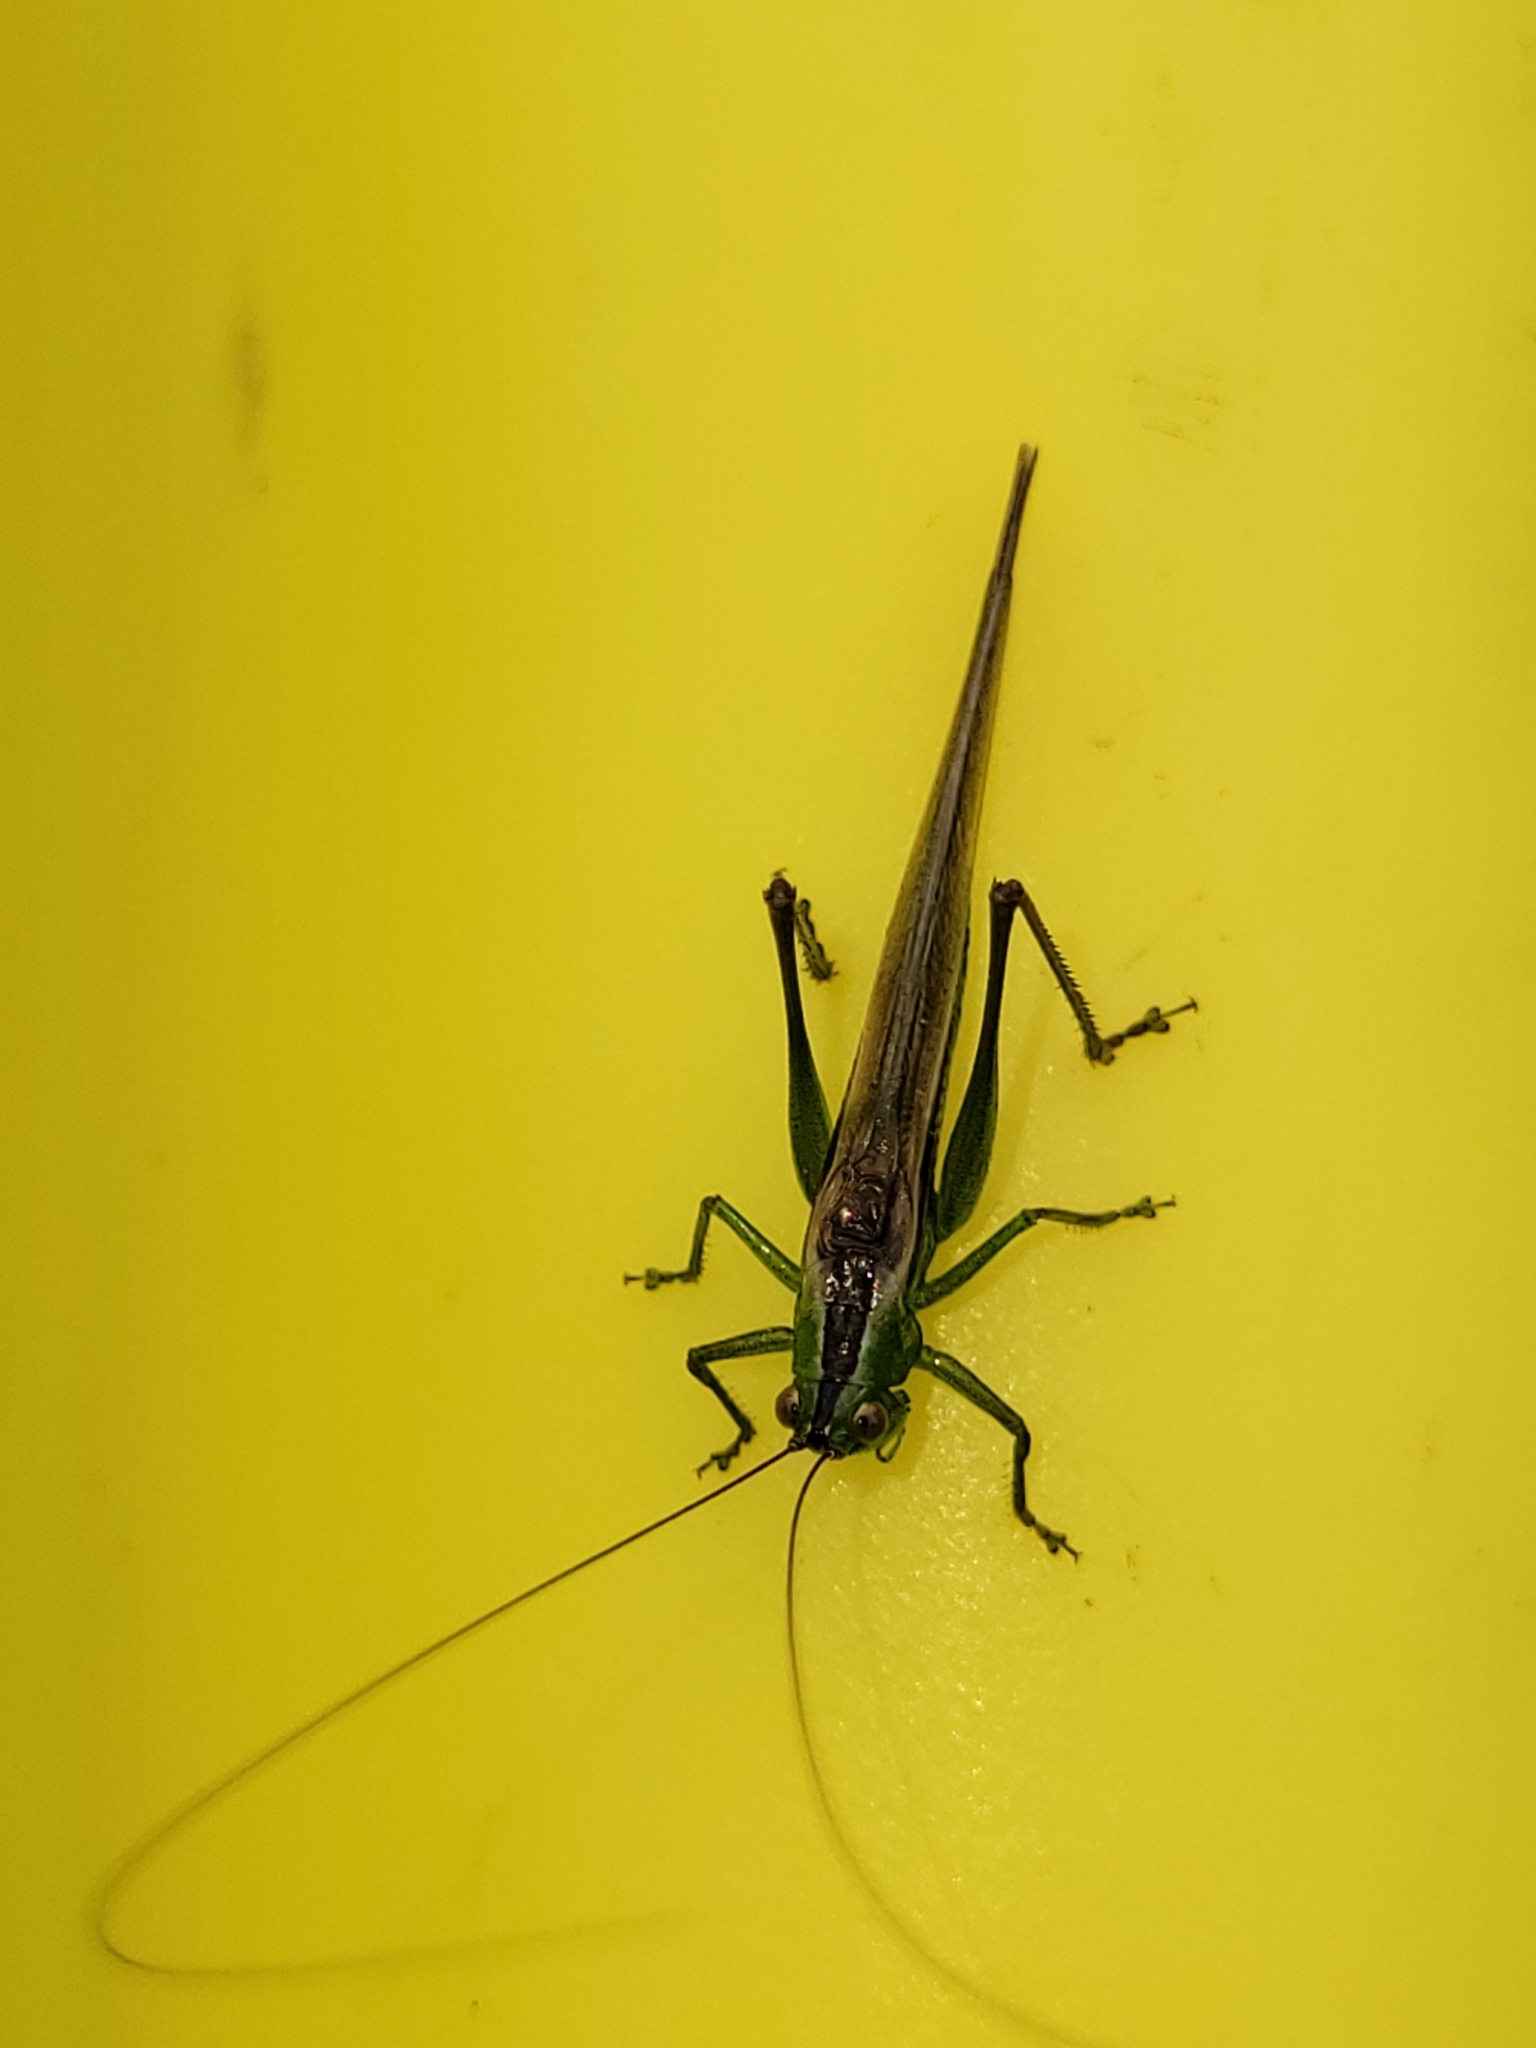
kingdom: Animalia
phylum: Arthropoda
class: Insecta
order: Orthoptera
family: Tettigoniidae
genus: Conocephalus
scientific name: Conocephalus fasciatus
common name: Slender meadow katydid
